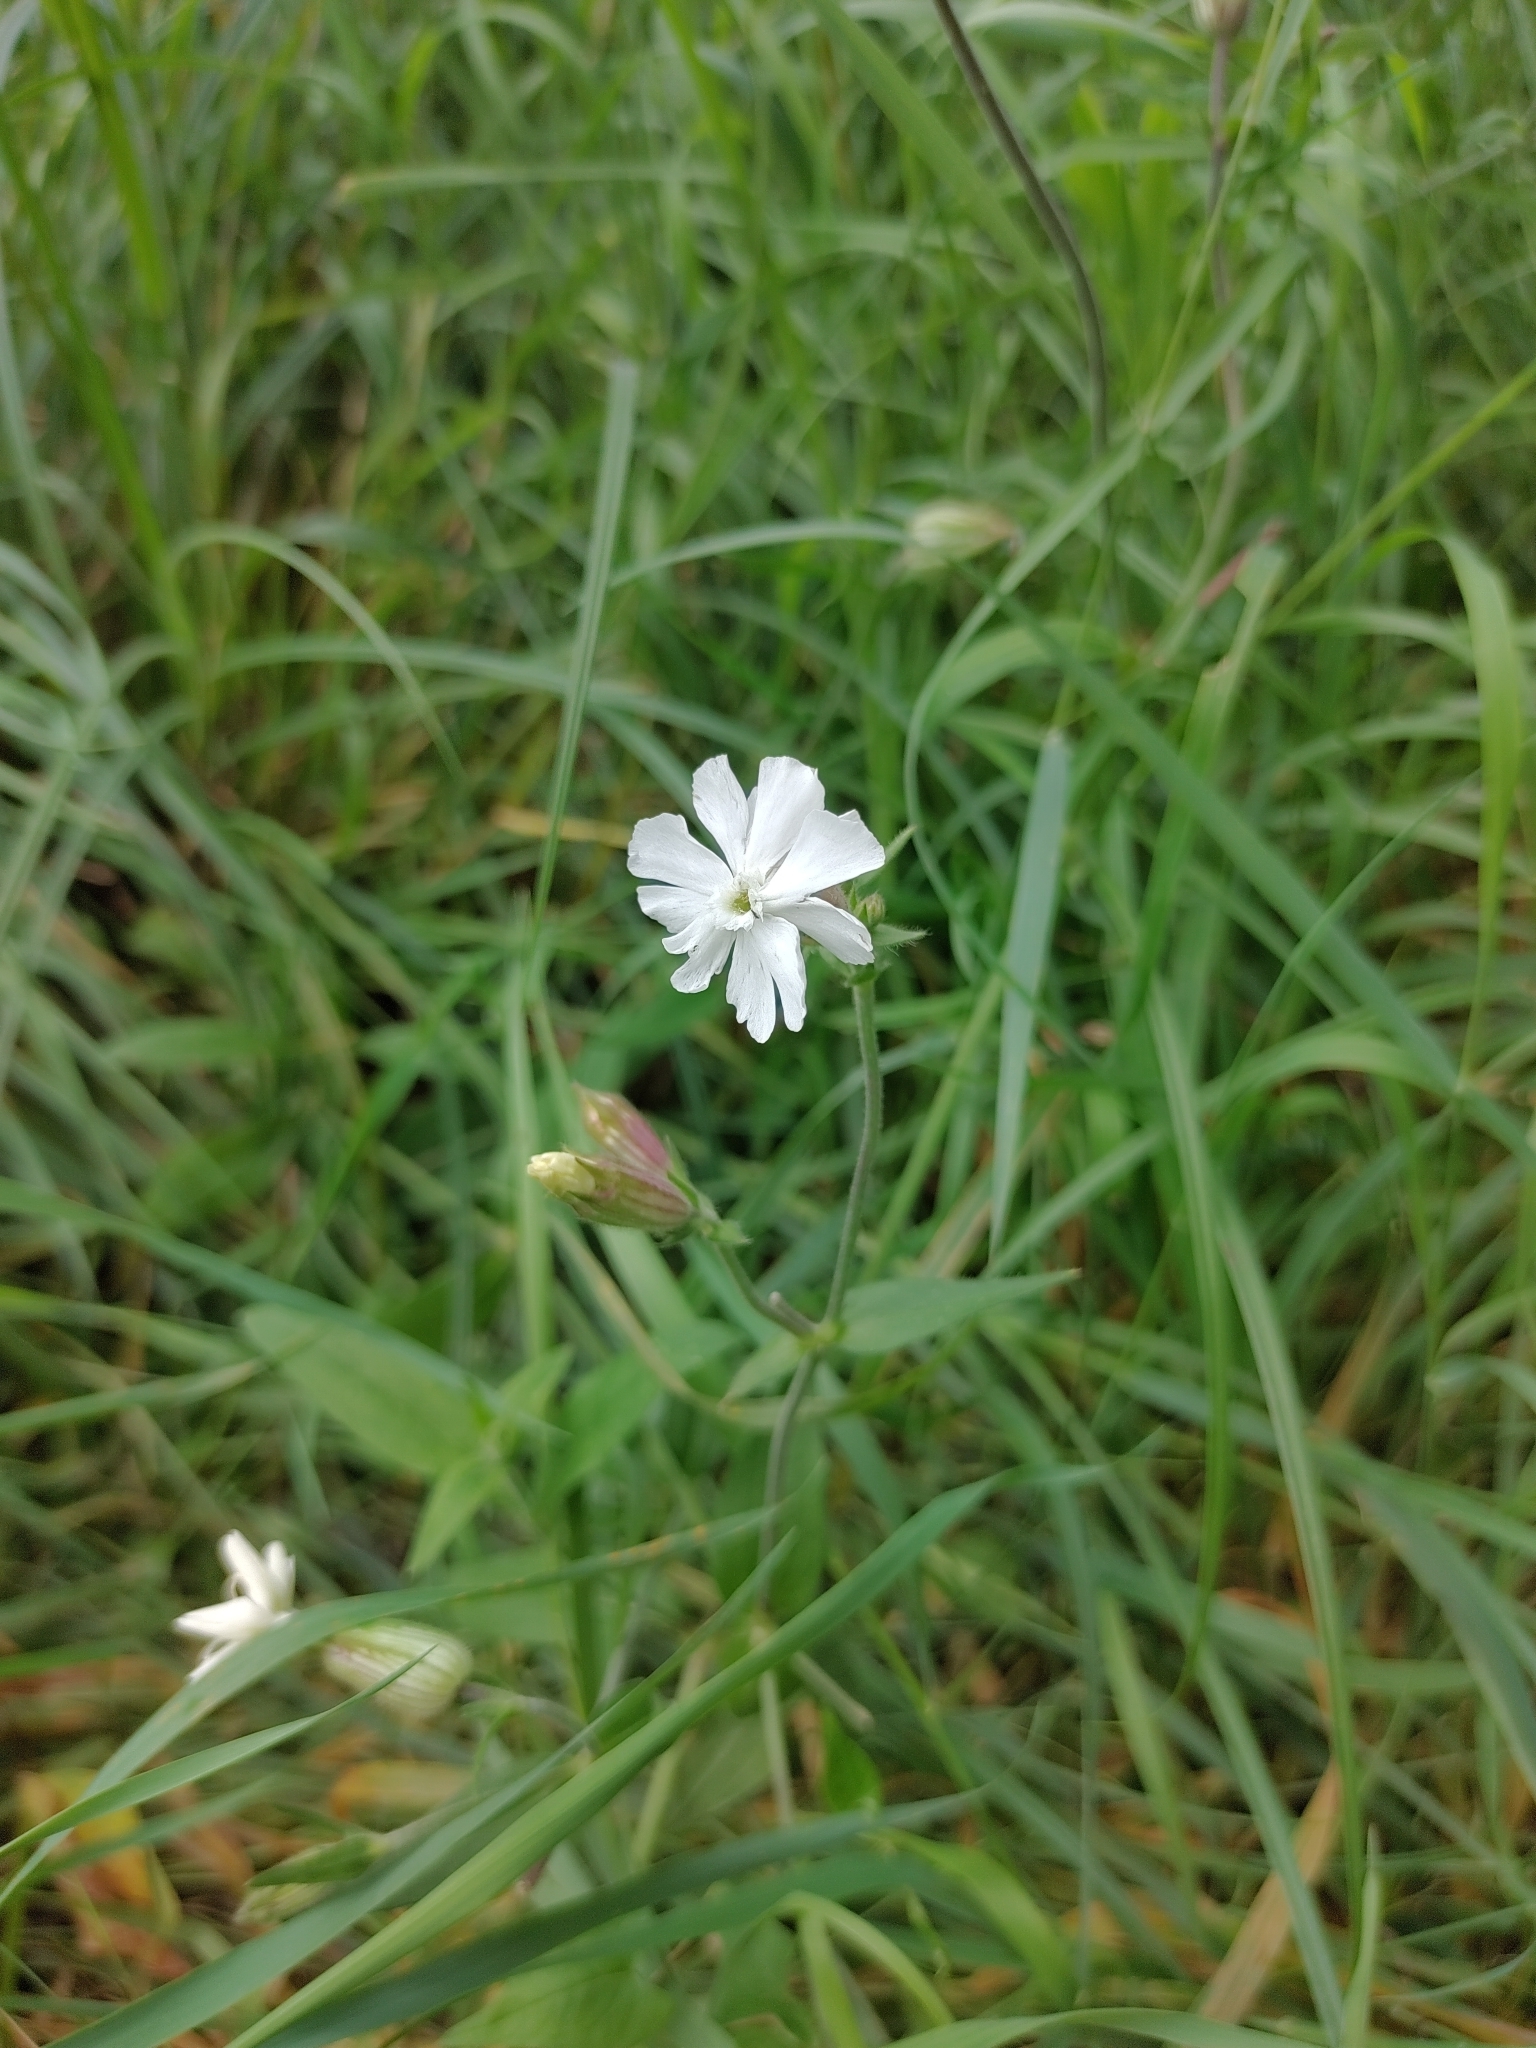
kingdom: Plantae
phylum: Tracheophyta
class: Magnoliopsida
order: Caryophyllales
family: Caryophyllaceae
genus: Silene
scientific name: Silene latifolia
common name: White campion
